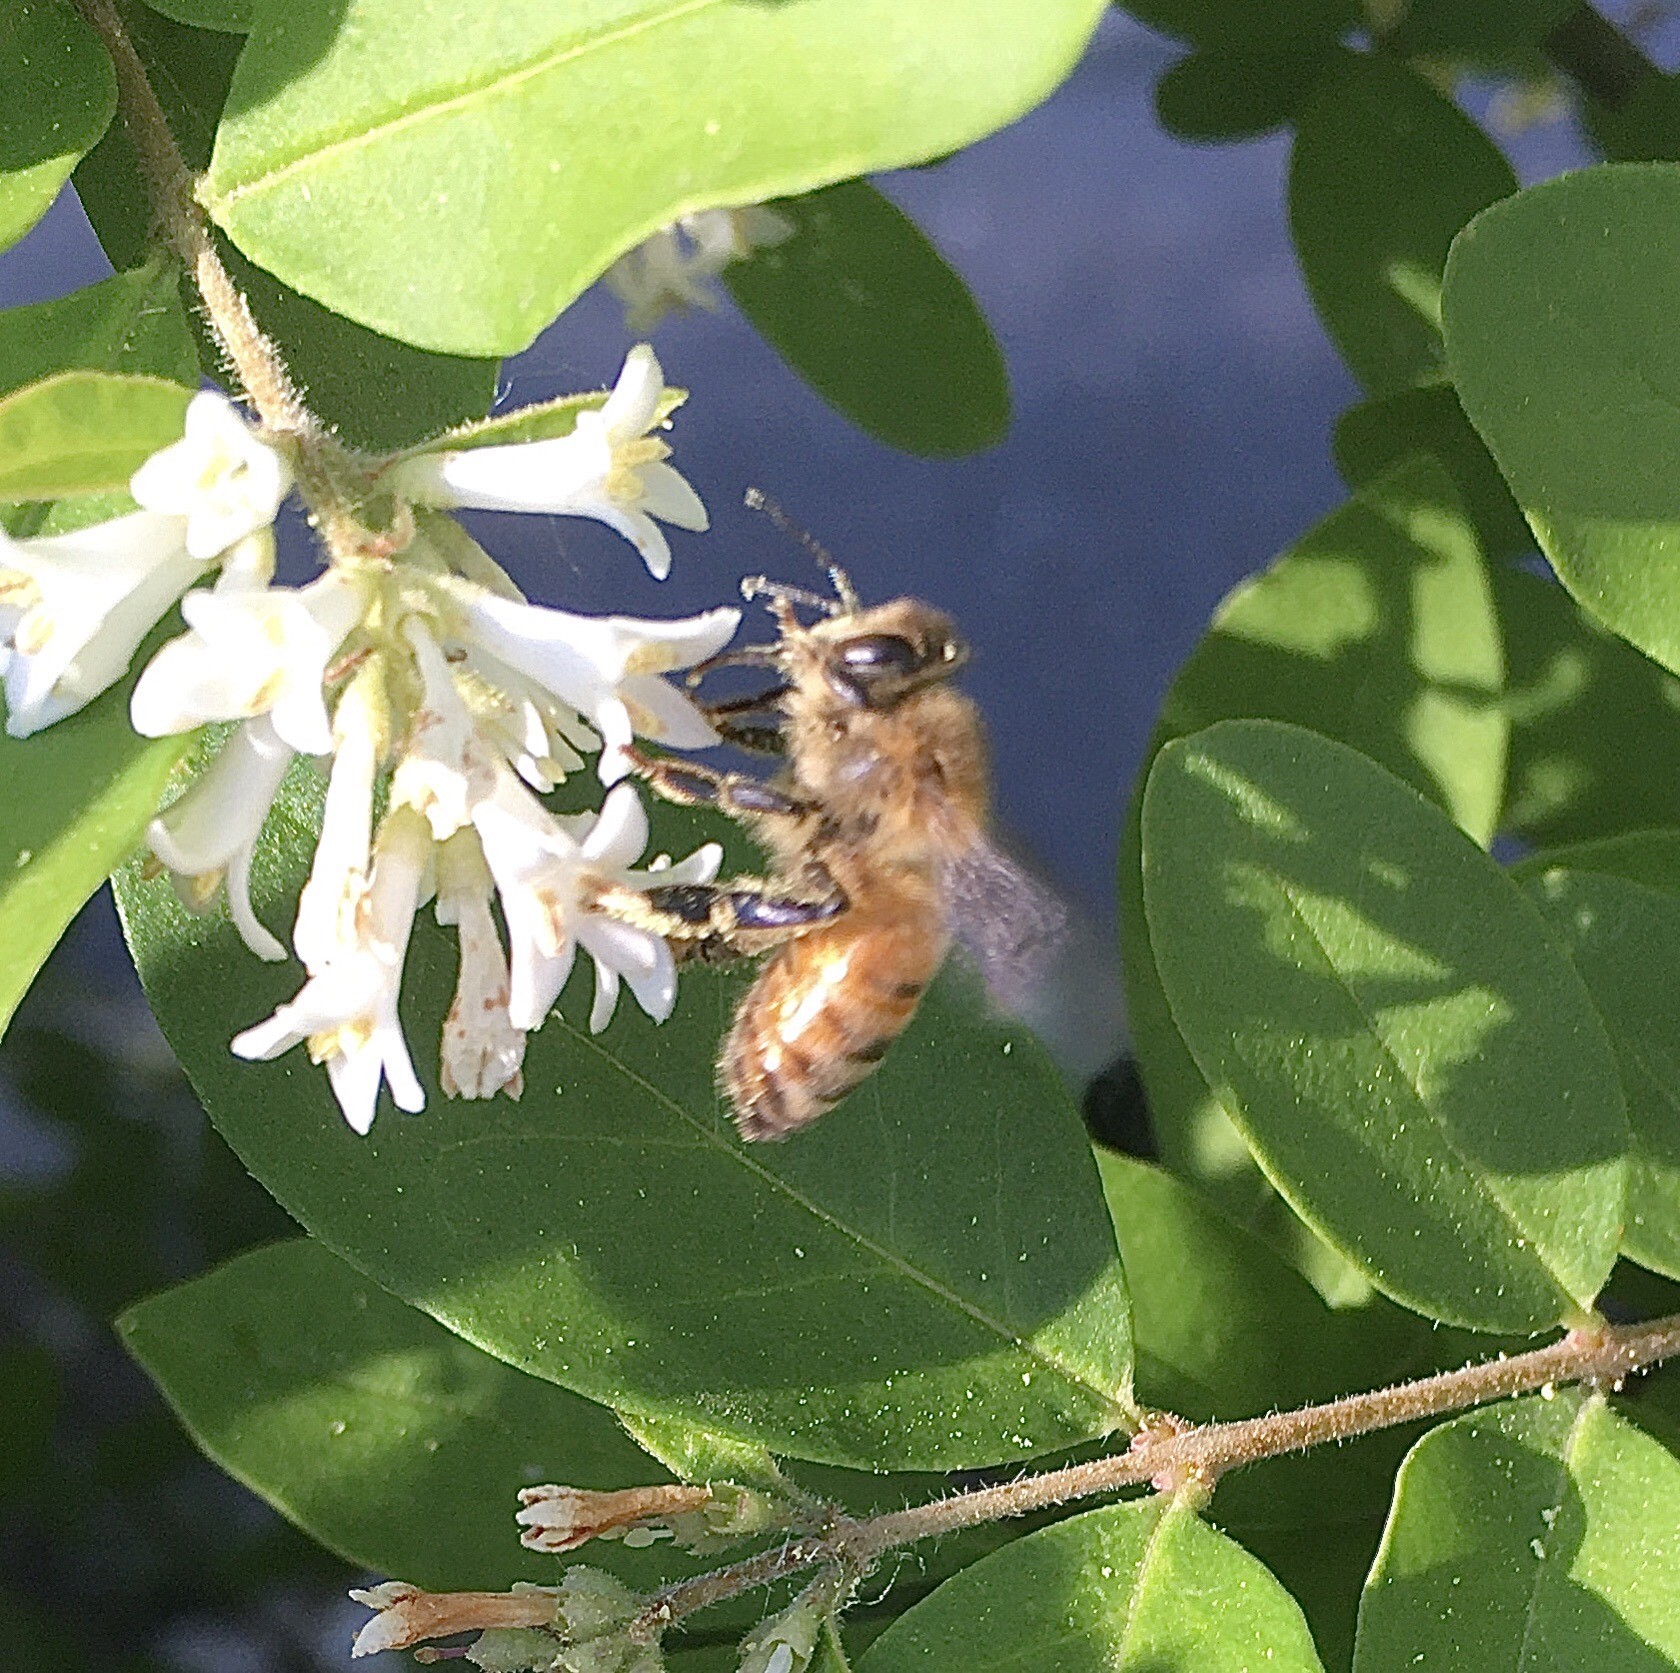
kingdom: Animalia
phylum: Arthropoda
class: Insecta
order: Hymenoptera
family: Apidae
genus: Apis
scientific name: Apis mellifera
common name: Honey bee
